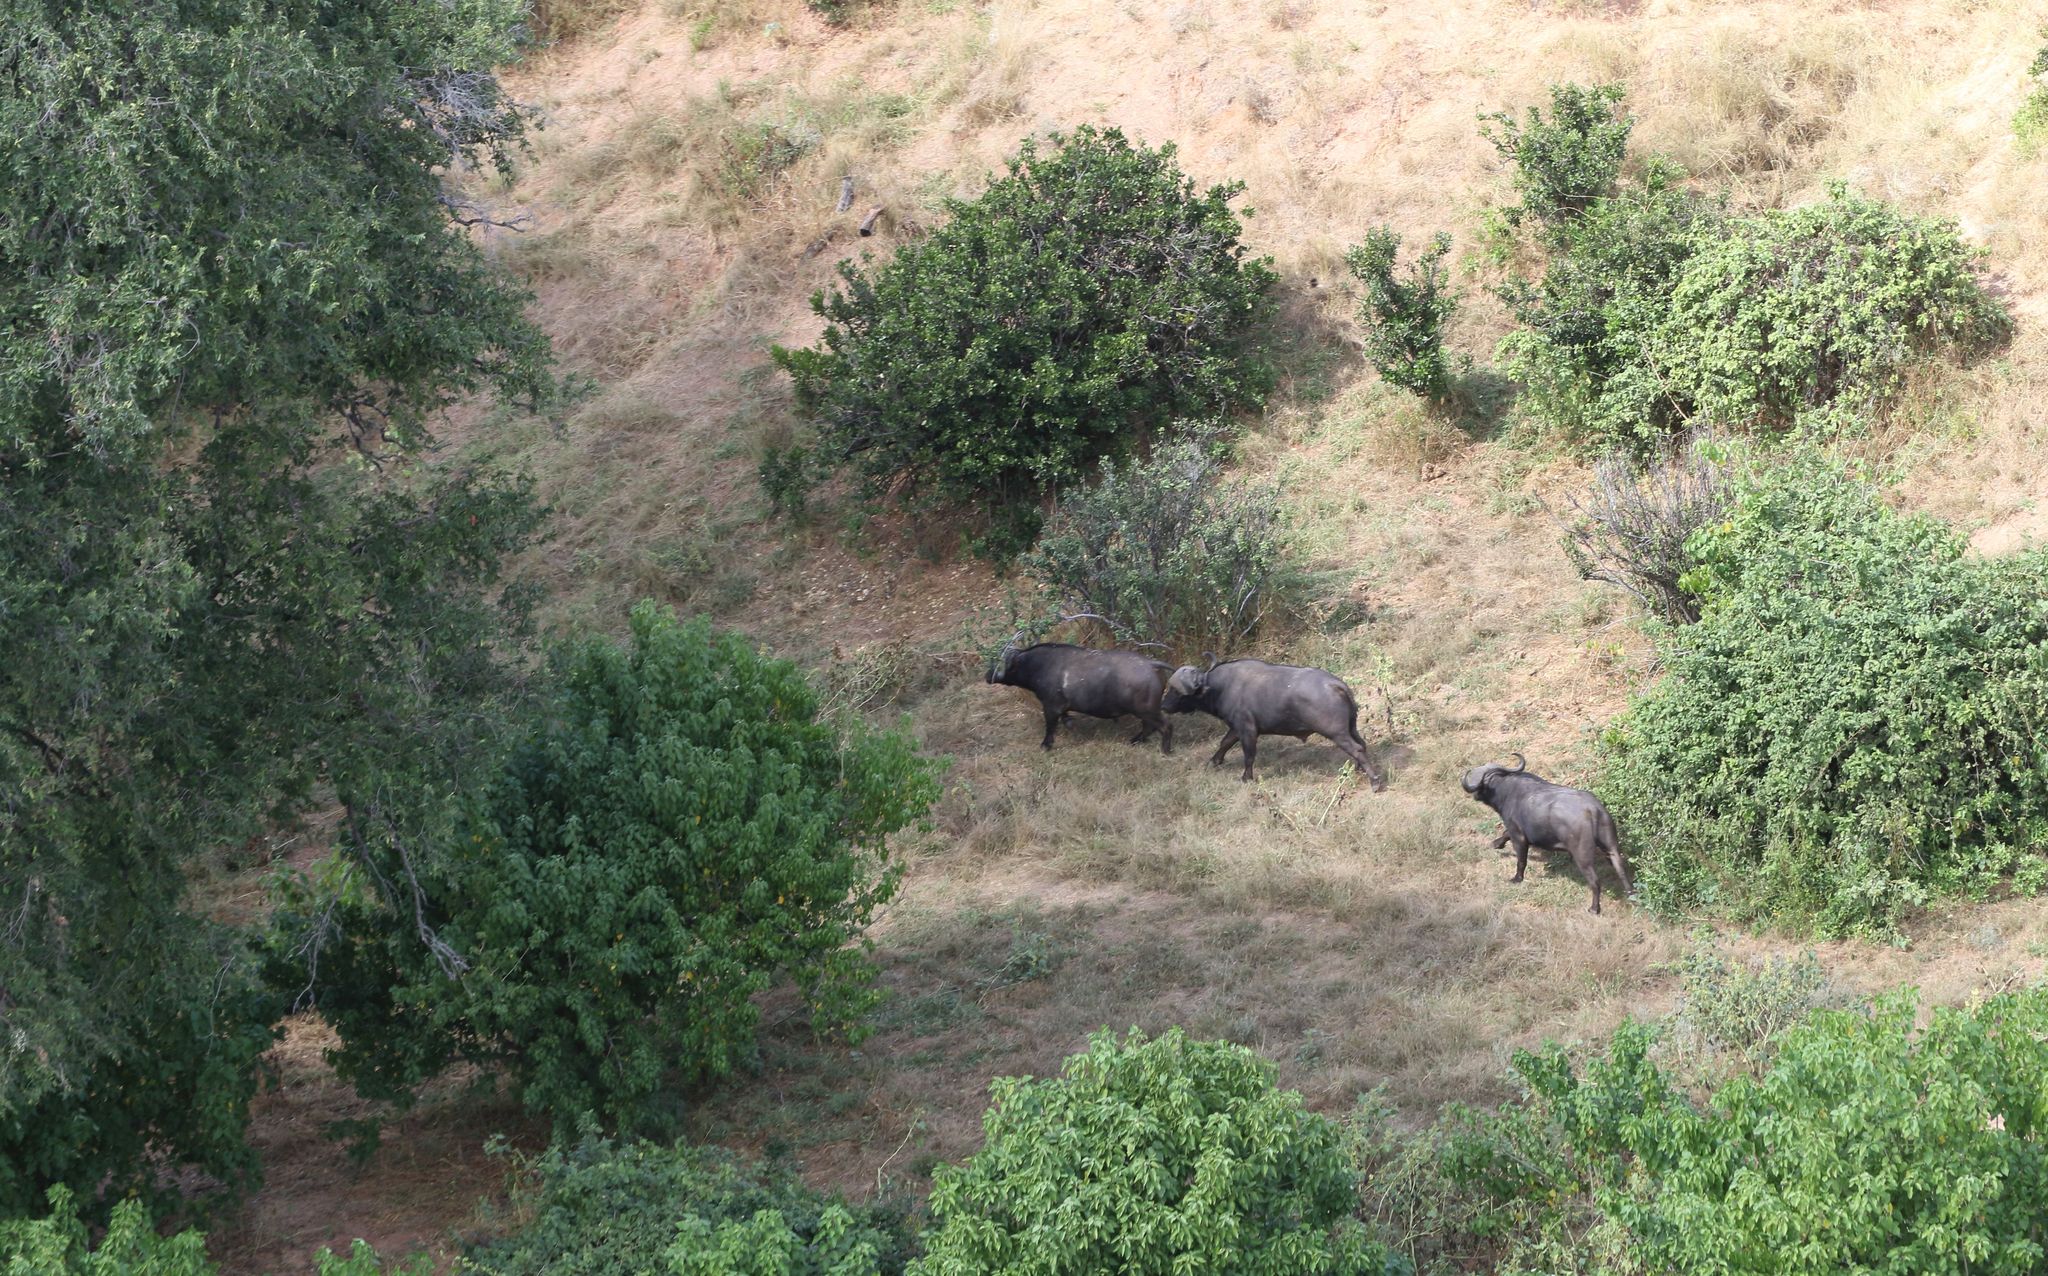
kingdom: Animalia
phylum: Chordata
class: Mammalia
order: Artiodactyla
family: Bovidae
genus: Syncerus
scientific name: Syncerus caffer
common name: African buffalo
